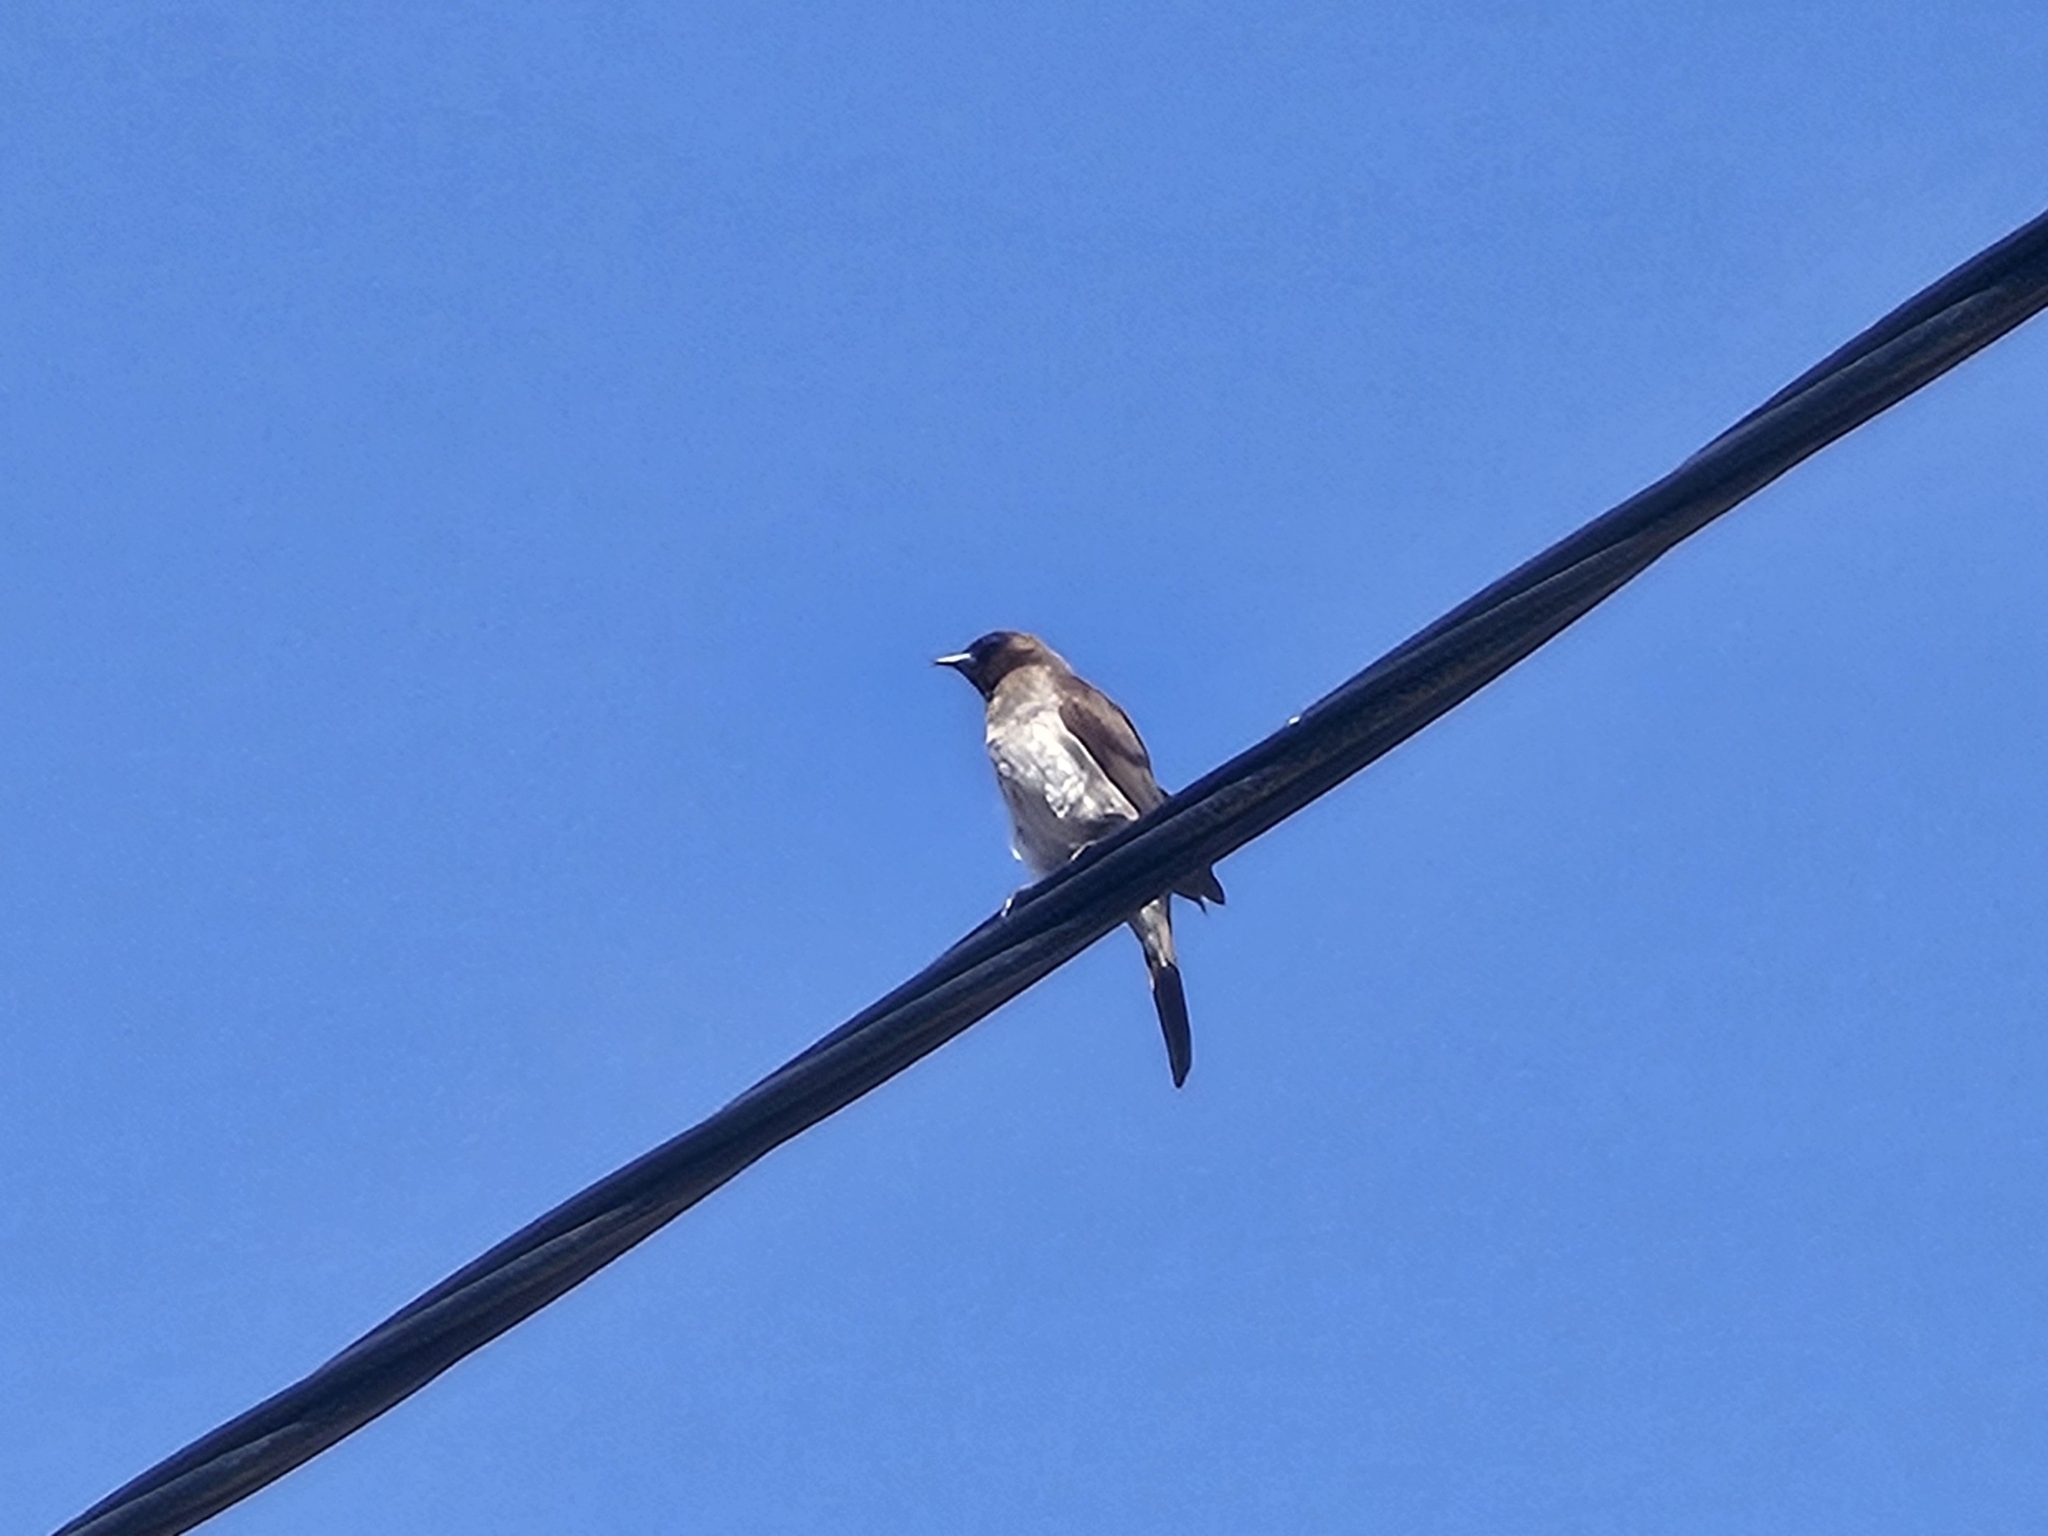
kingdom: Animalia
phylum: Chordata
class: Aves
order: Passeriformes
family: Pycnonotidae
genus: Pycnonotus
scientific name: Pycnonotus barbatus
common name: Common bulbul
